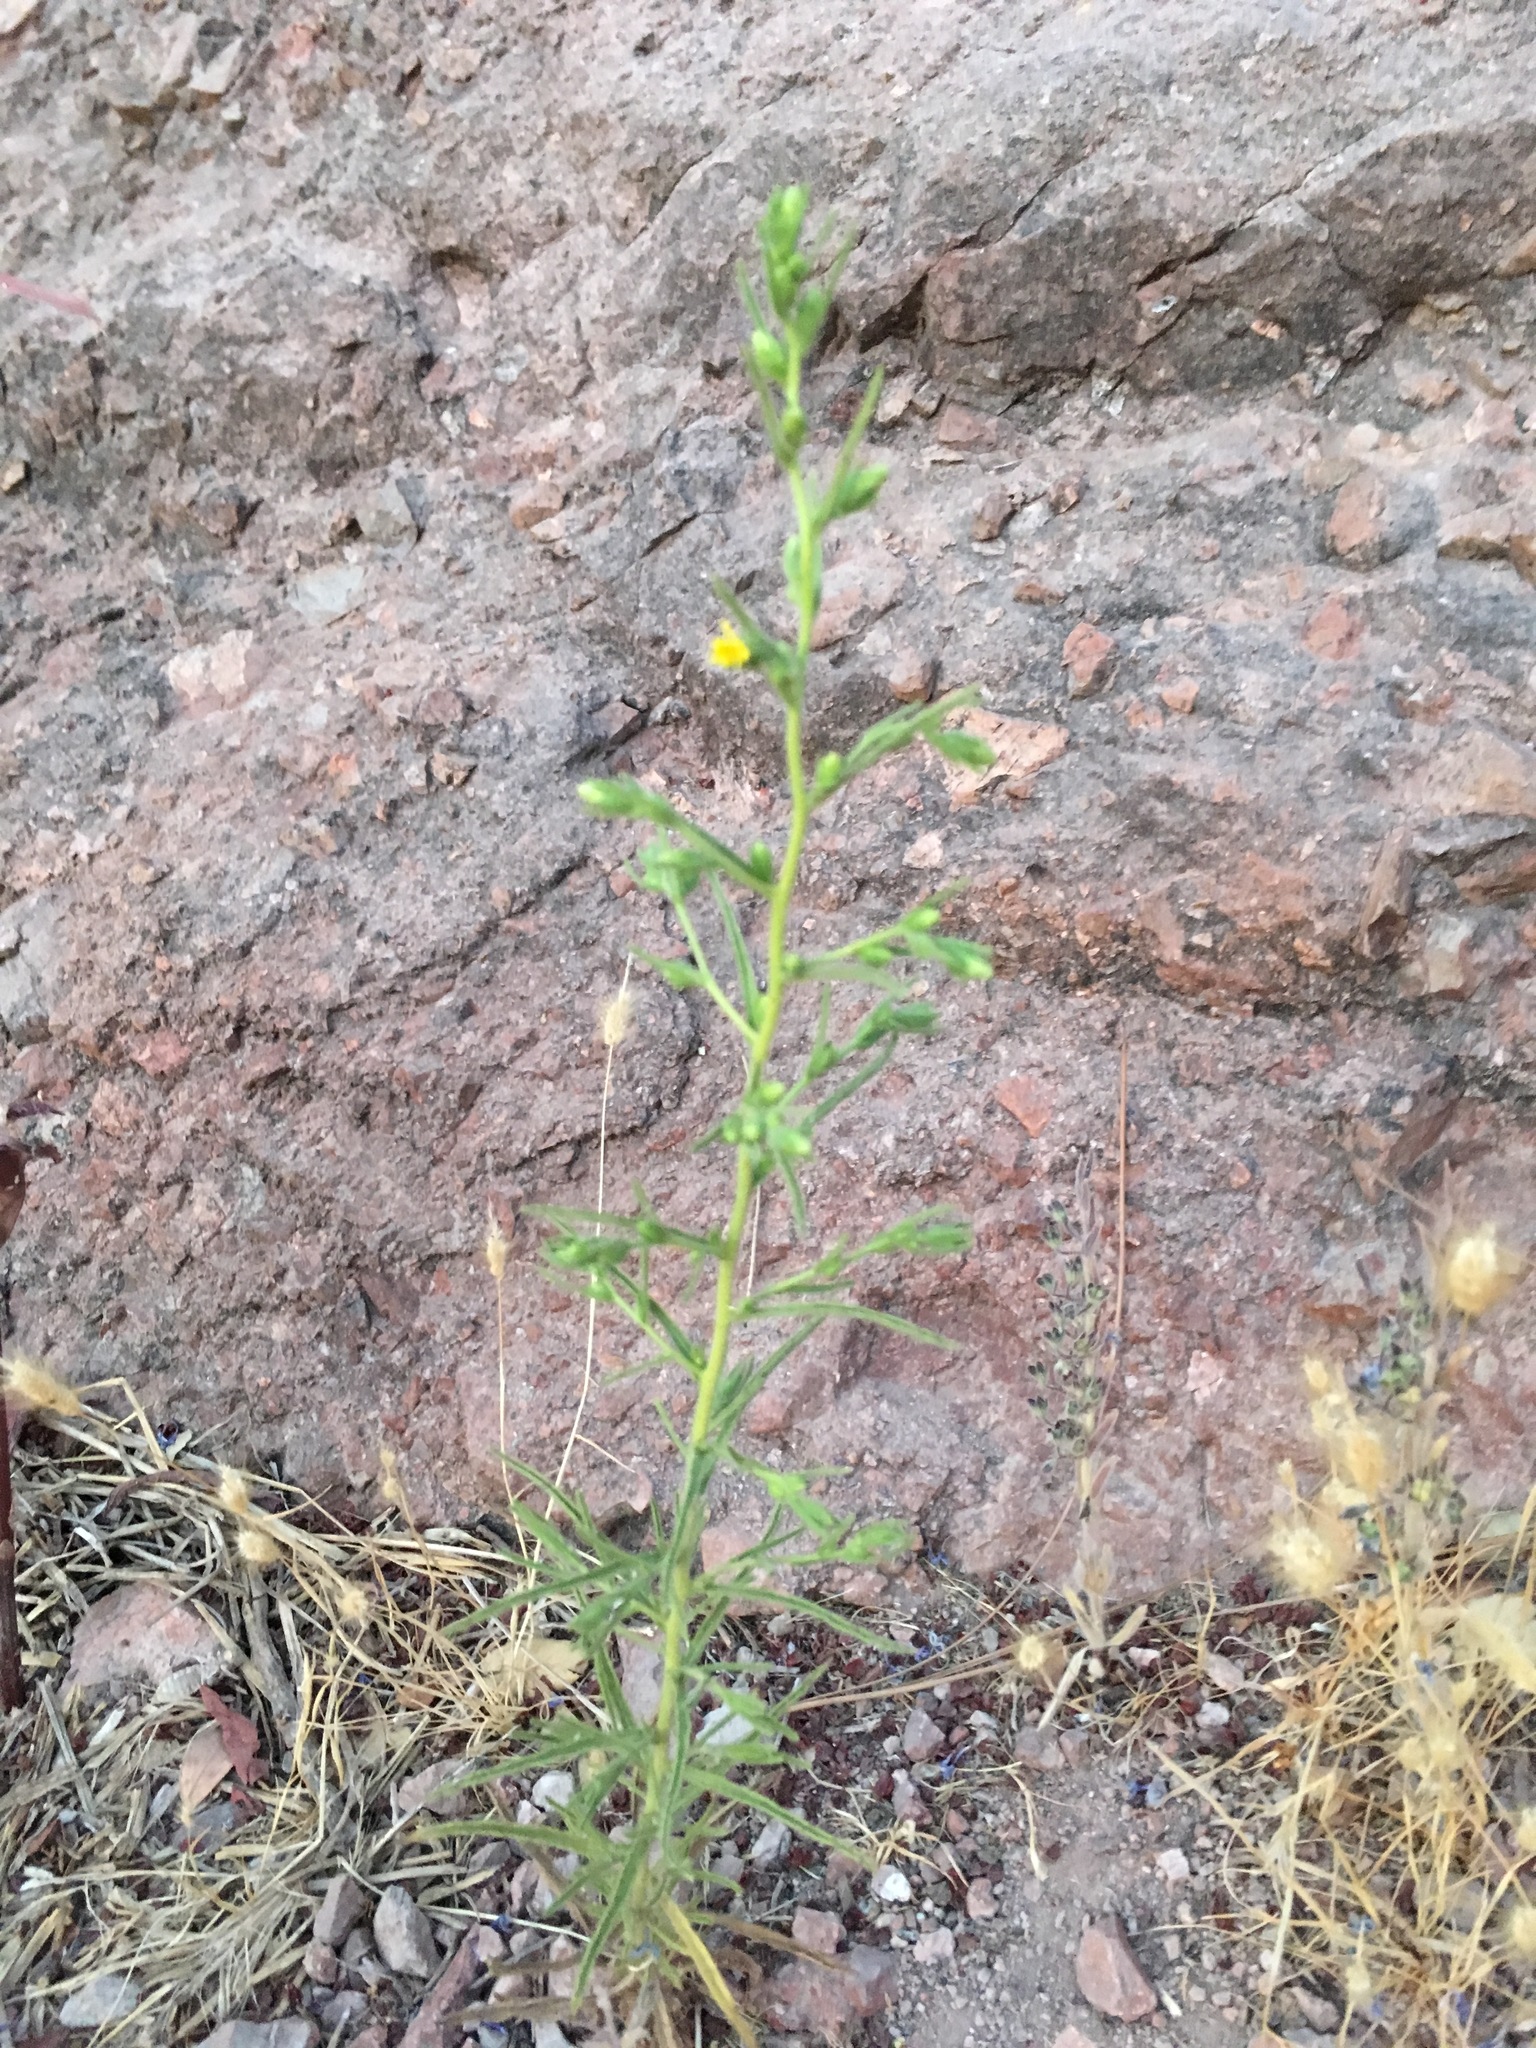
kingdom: Plantae
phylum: Tracheophyta
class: Magnoliopsida
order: Asterales
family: Asteraceae
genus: Dittrichia
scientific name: Dittrichia graveolens
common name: Stinking fleabane
